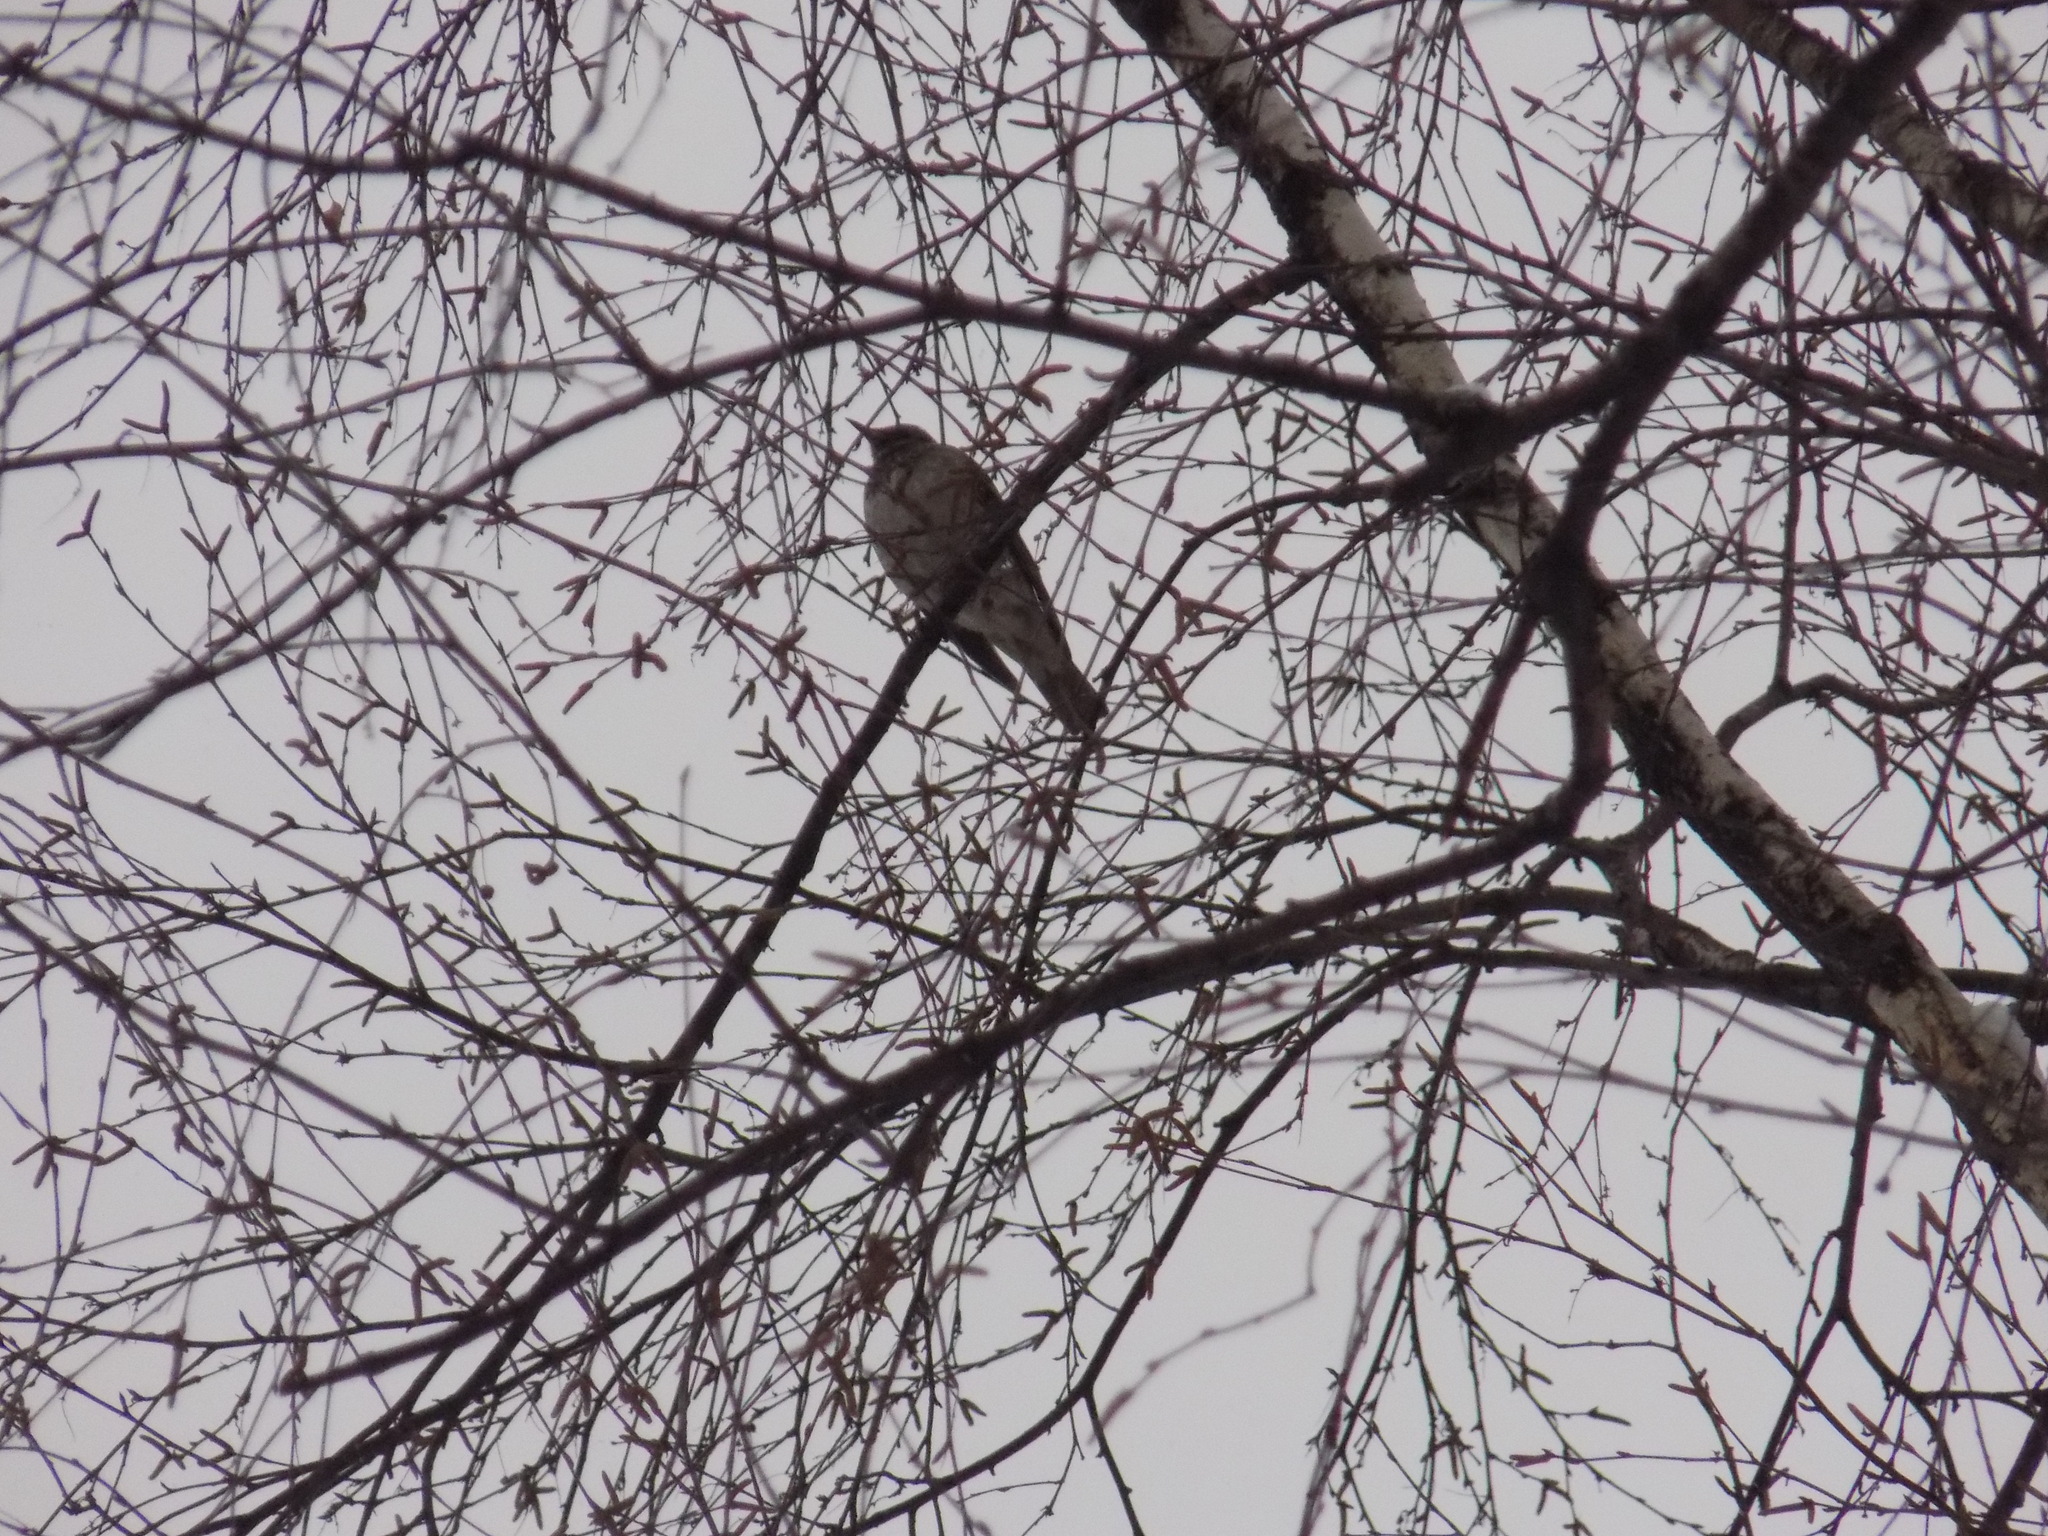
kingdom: Animalia
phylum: Chordata
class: Aves
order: Passeriformes
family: Turdidae
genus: Turdus
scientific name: Turdus atrogularis
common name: Black-throated thrush
